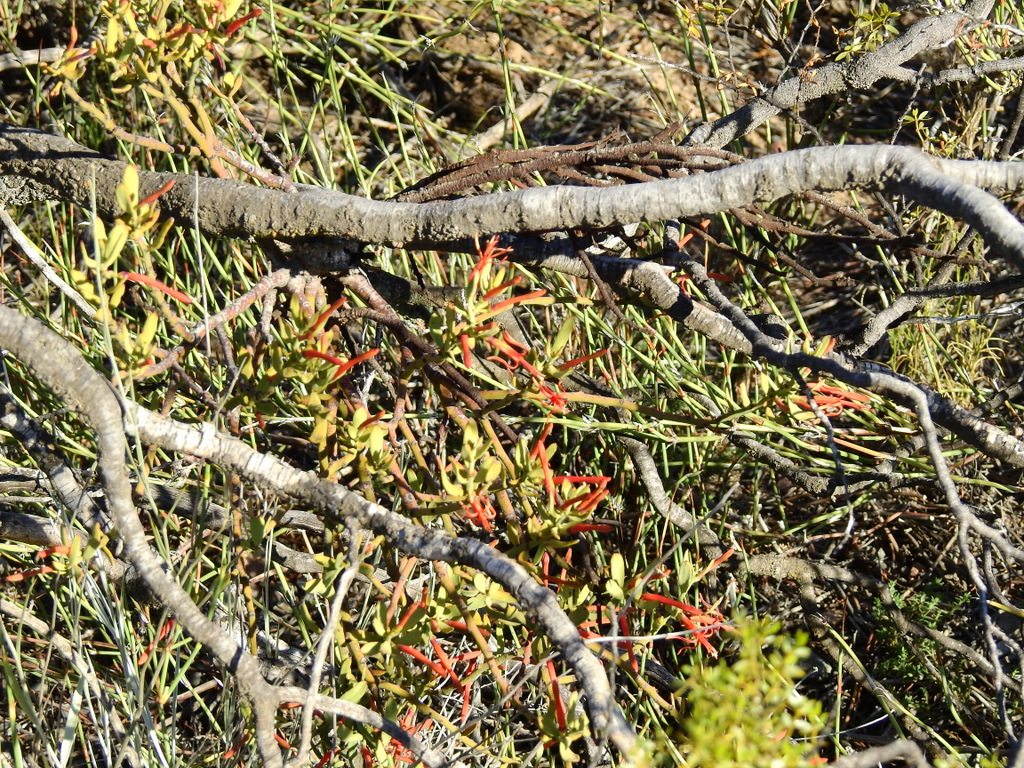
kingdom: Plantae
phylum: Tracheophyta
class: Magnoliopsida
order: Santalales
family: Loranthaceae
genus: Ligaria
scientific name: Ligaria cuneifolia
